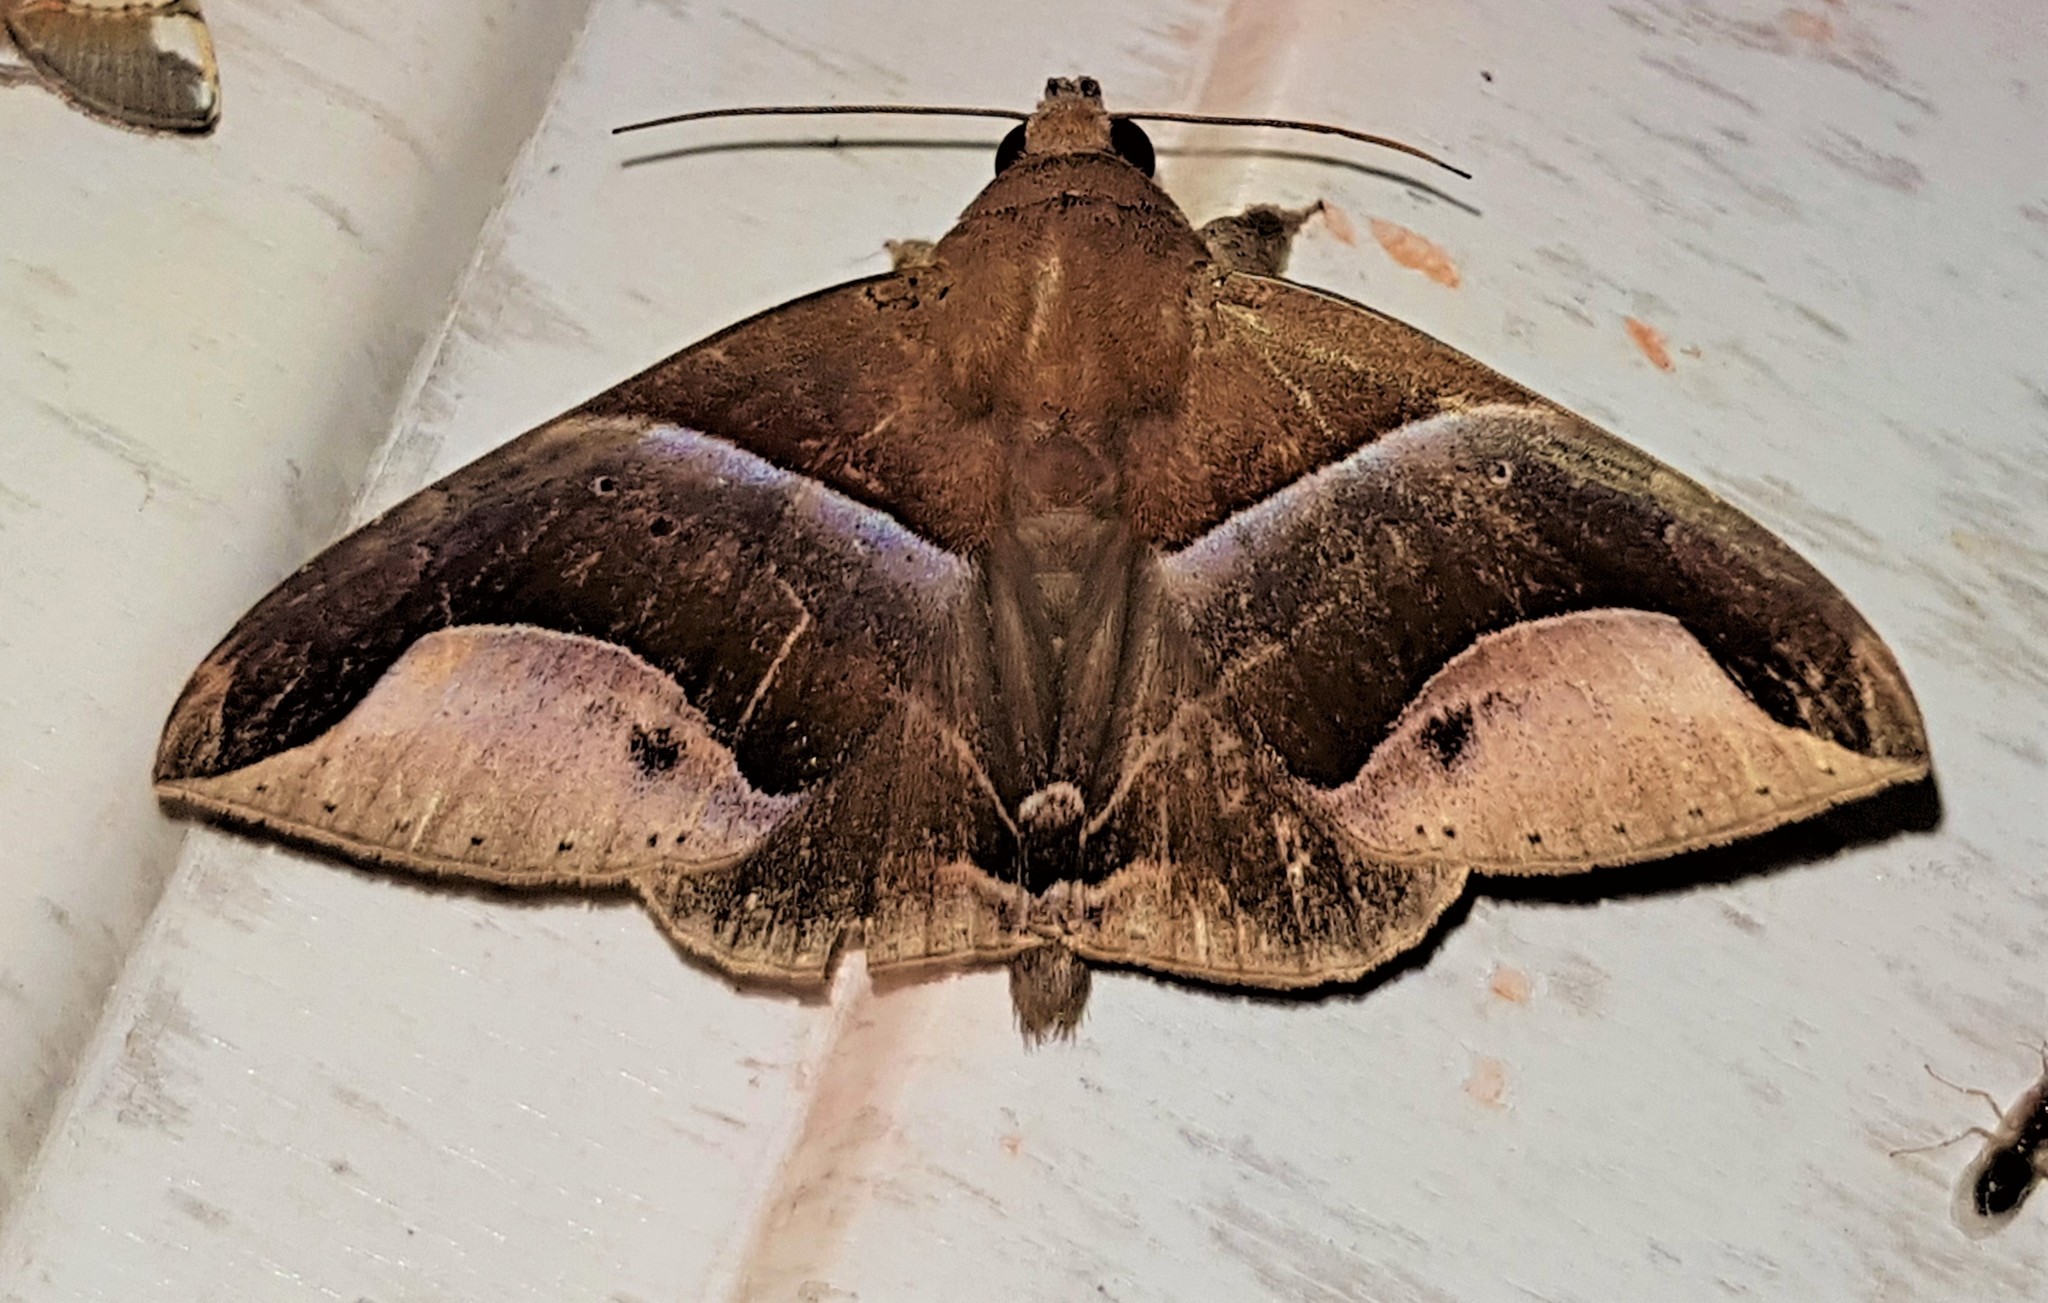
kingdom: Animalia
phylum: Arthropoda
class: Insecta
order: Lepidoptera
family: Erebidae
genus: Parachaea
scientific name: Parachaea macaria
